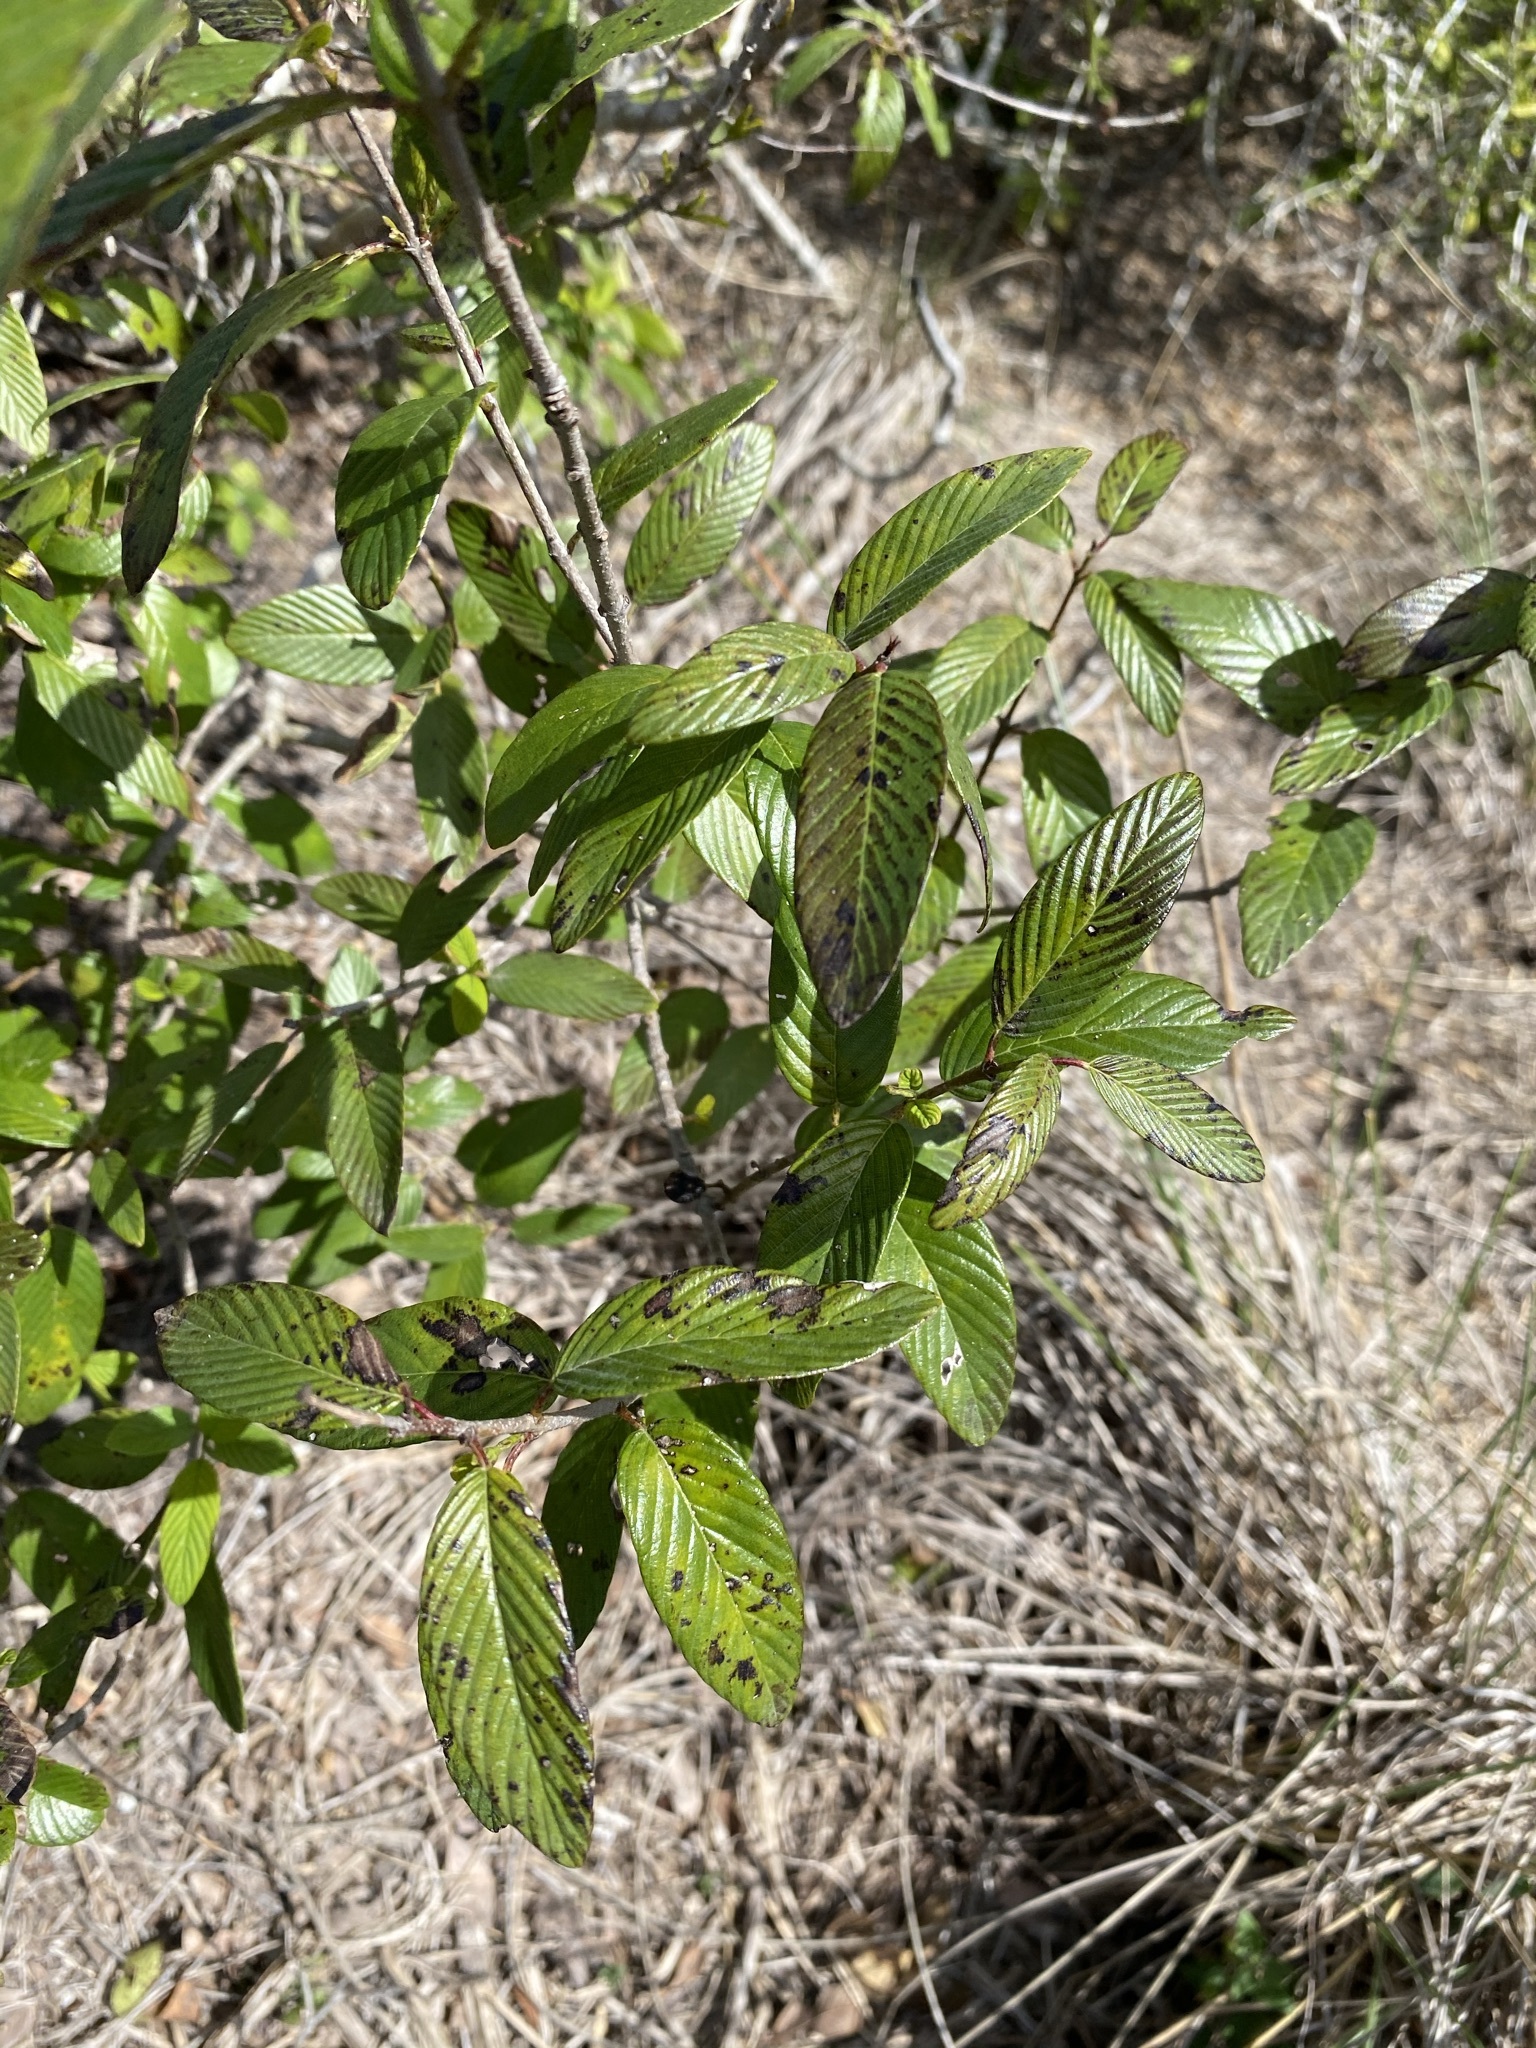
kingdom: Plantae
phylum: Tracheophyta
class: Magnoliopsida
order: Rosales
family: Rhamnaceae
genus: Karwinskia
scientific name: Karwinskia humboldtiana
